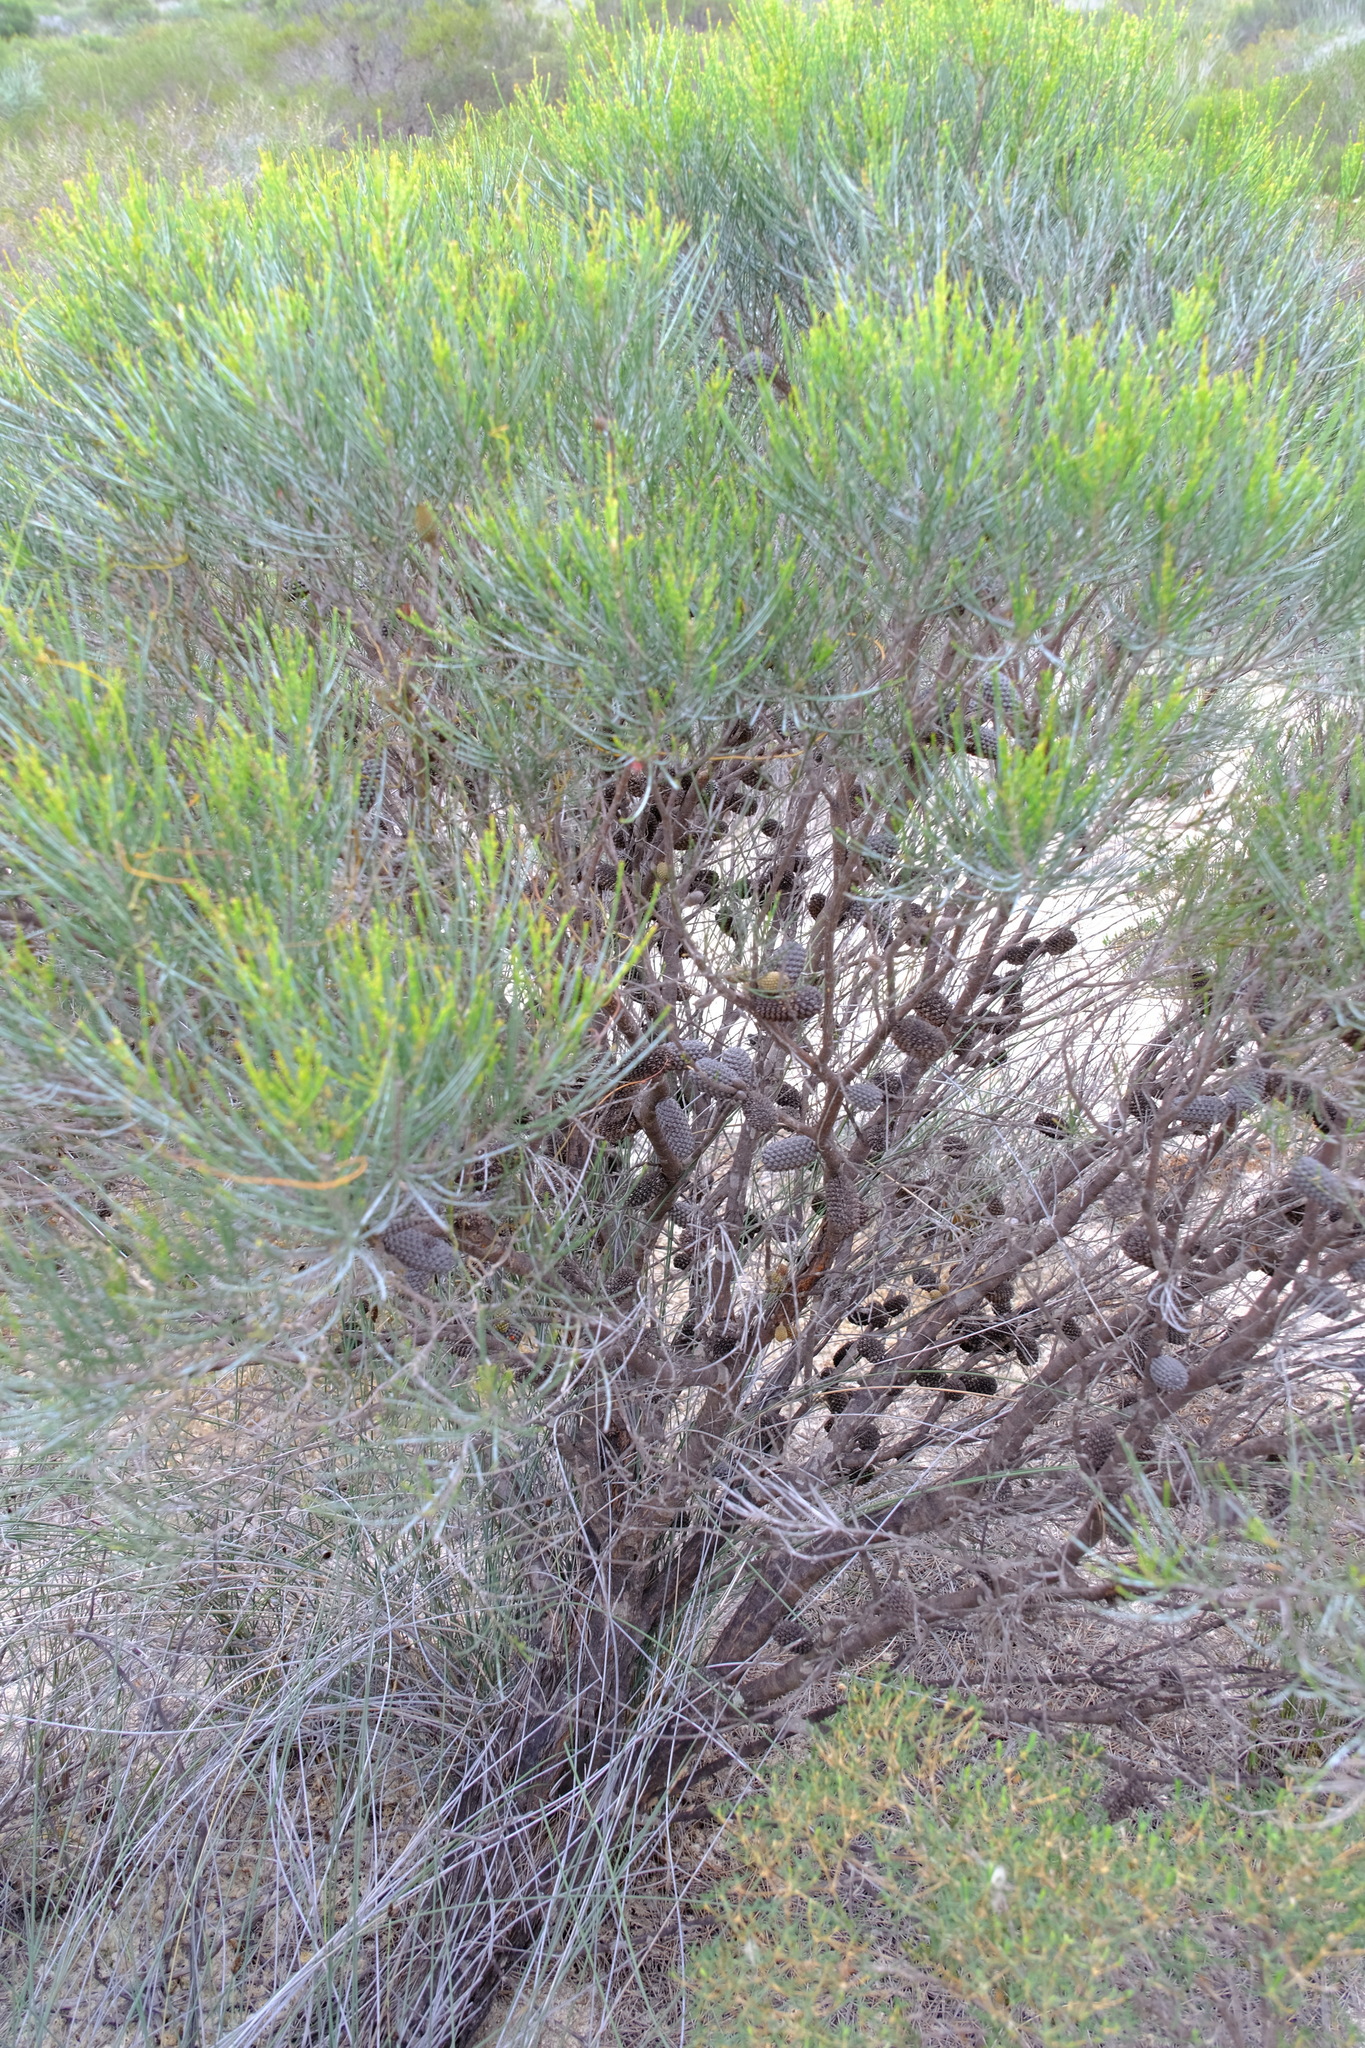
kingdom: Plantae
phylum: Tracheophyta
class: Magnoliopsida
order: Fagales
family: Casuarinaceae
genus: Allocasuarina
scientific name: Allocasuarina campestris
